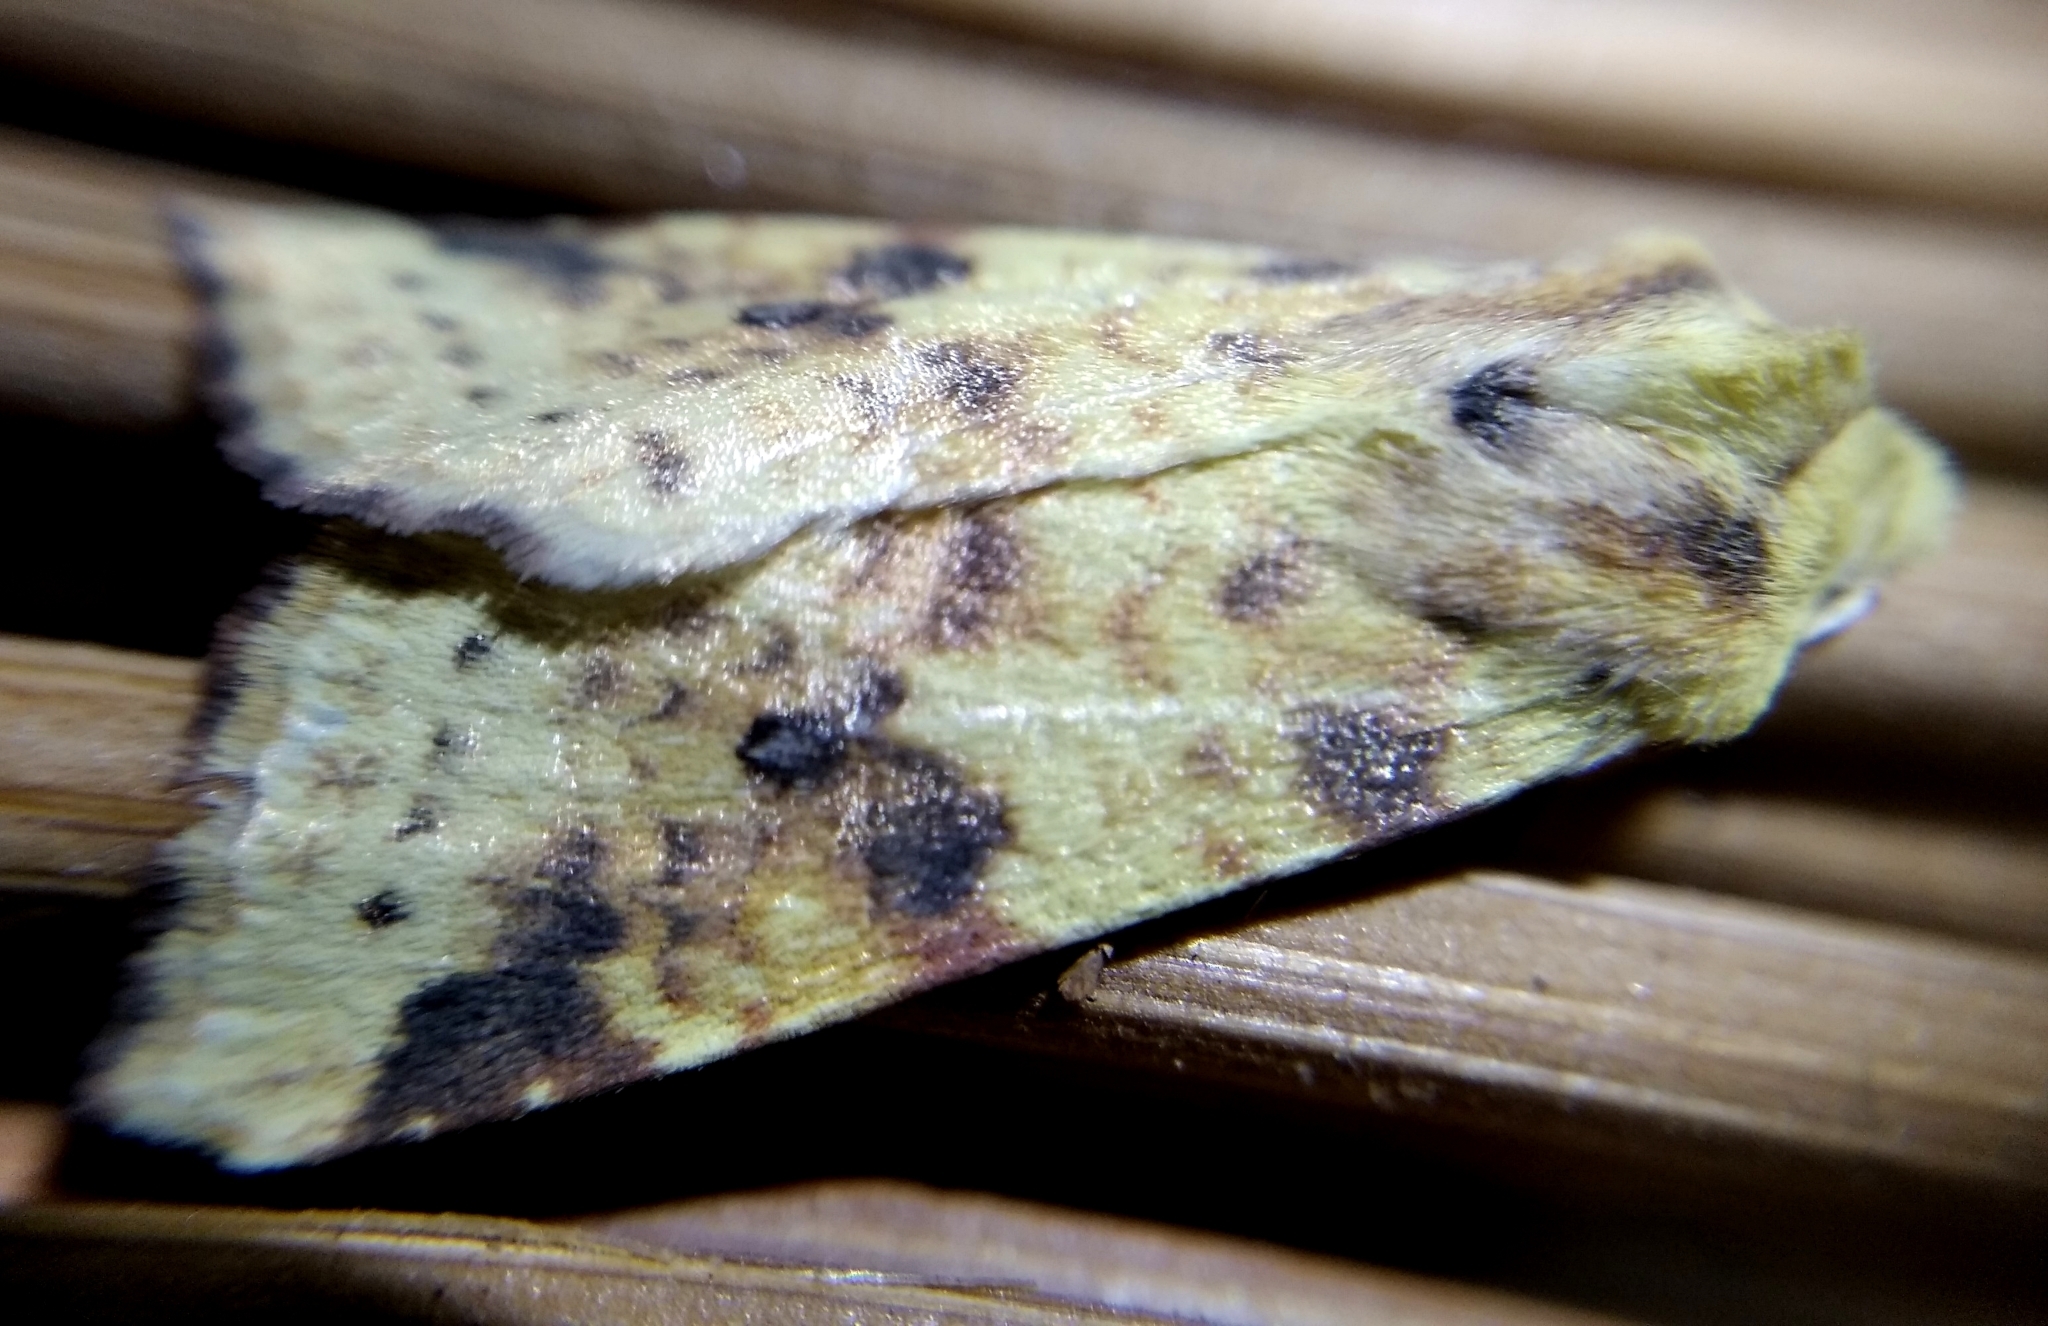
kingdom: Animalia
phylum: Arthropoda
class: Insecta
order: Lepidoptera
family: Noctuidae
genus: Xanthia
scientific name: Xanthia icteritia
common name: The sallow
